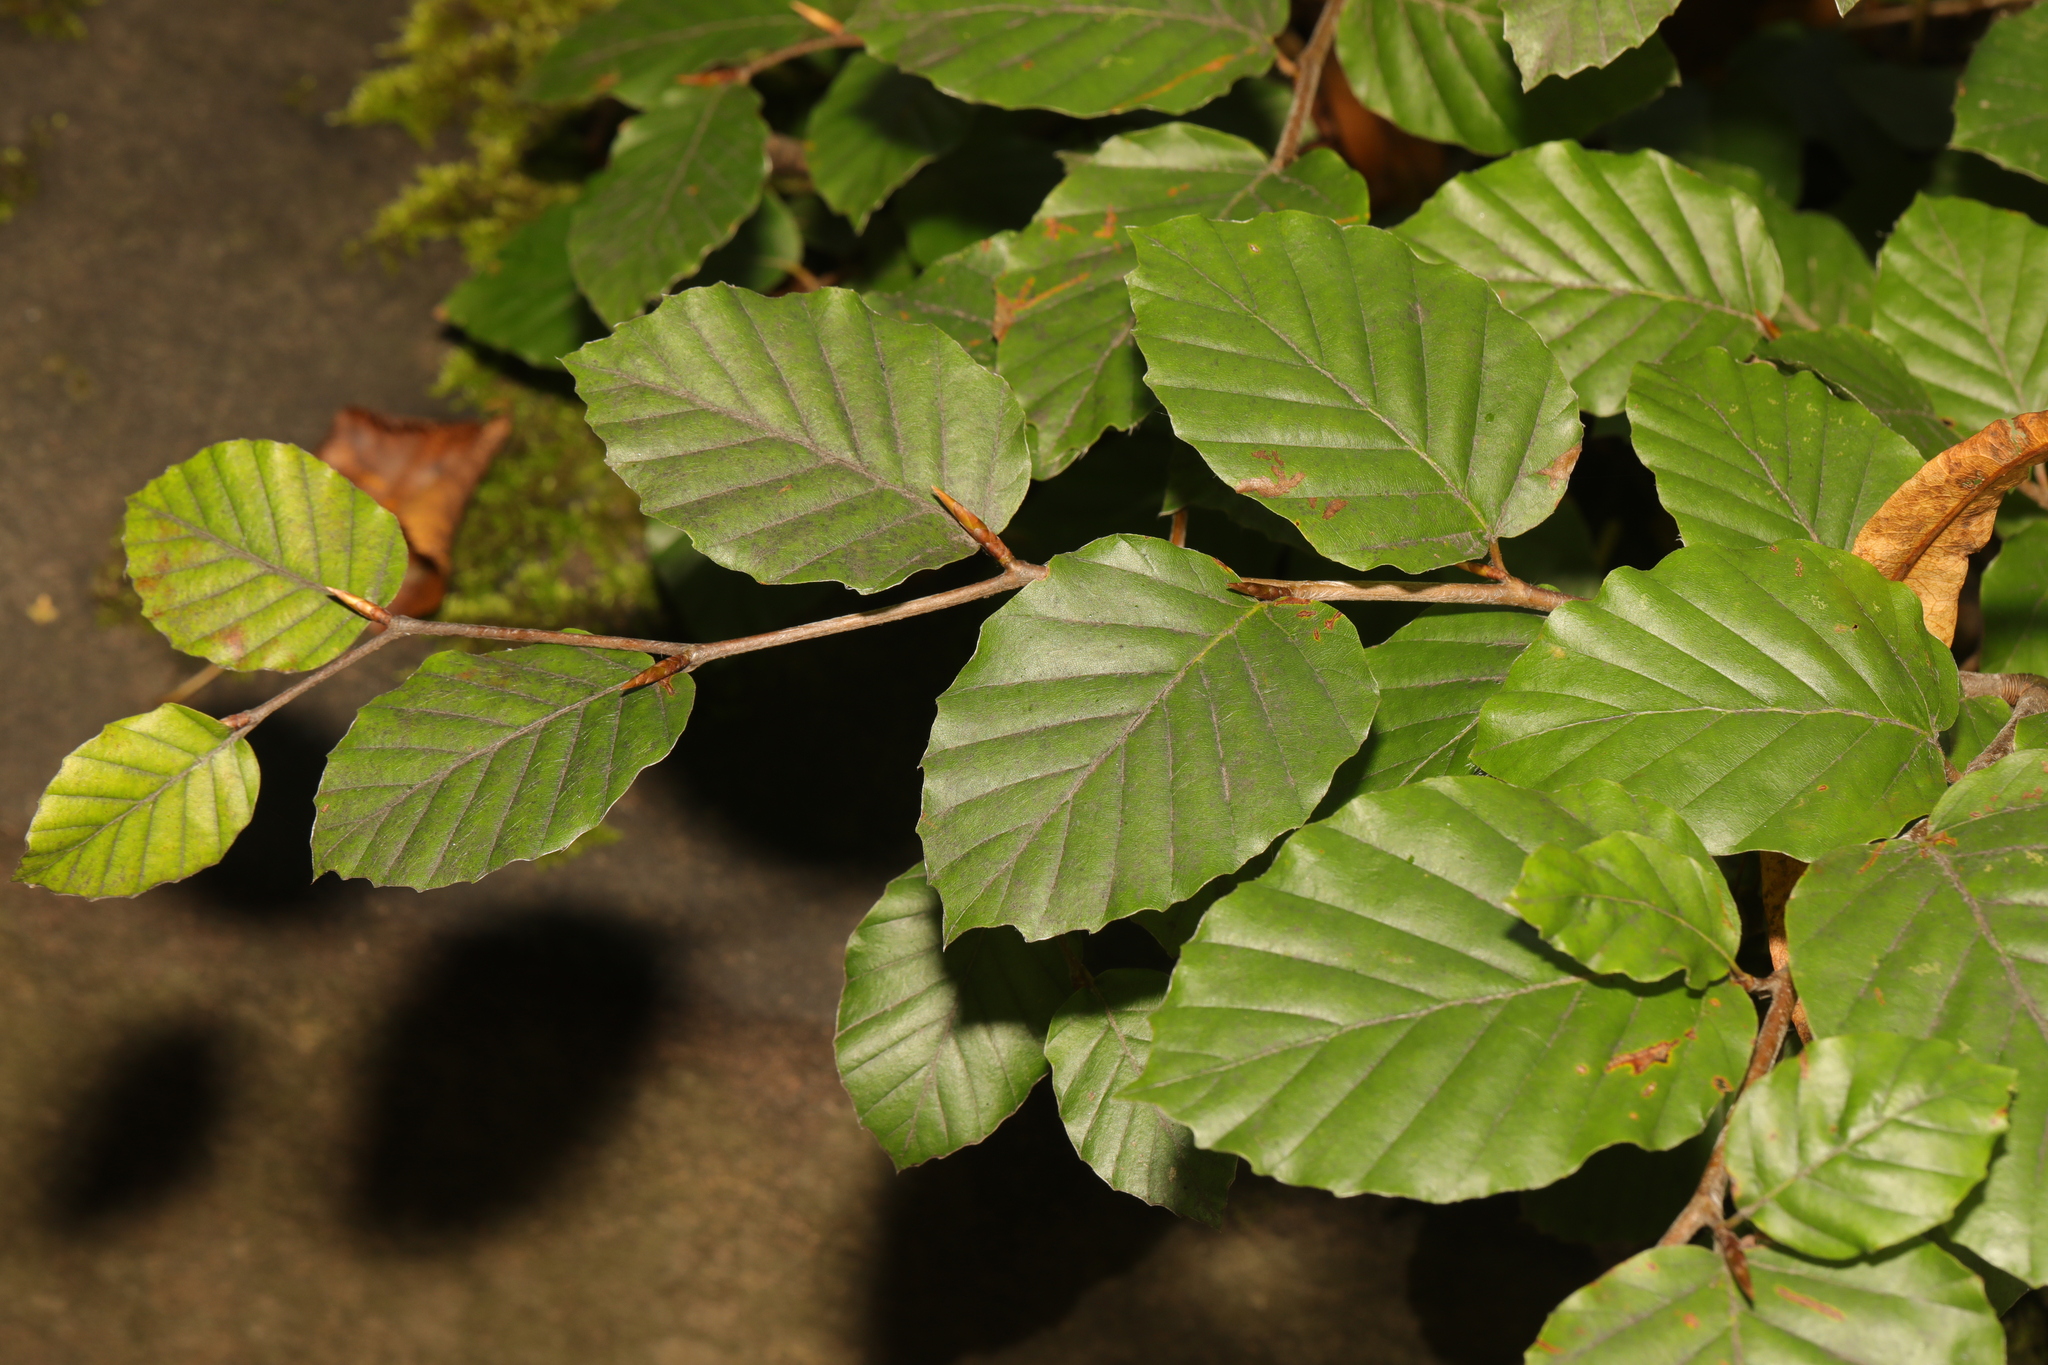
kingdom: Plantae
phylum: Tracheophyta
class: Magnoliopsida
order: Fagales
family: Fagaceae
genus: Fagus
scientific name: Fagus sylvatica
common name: Beech
